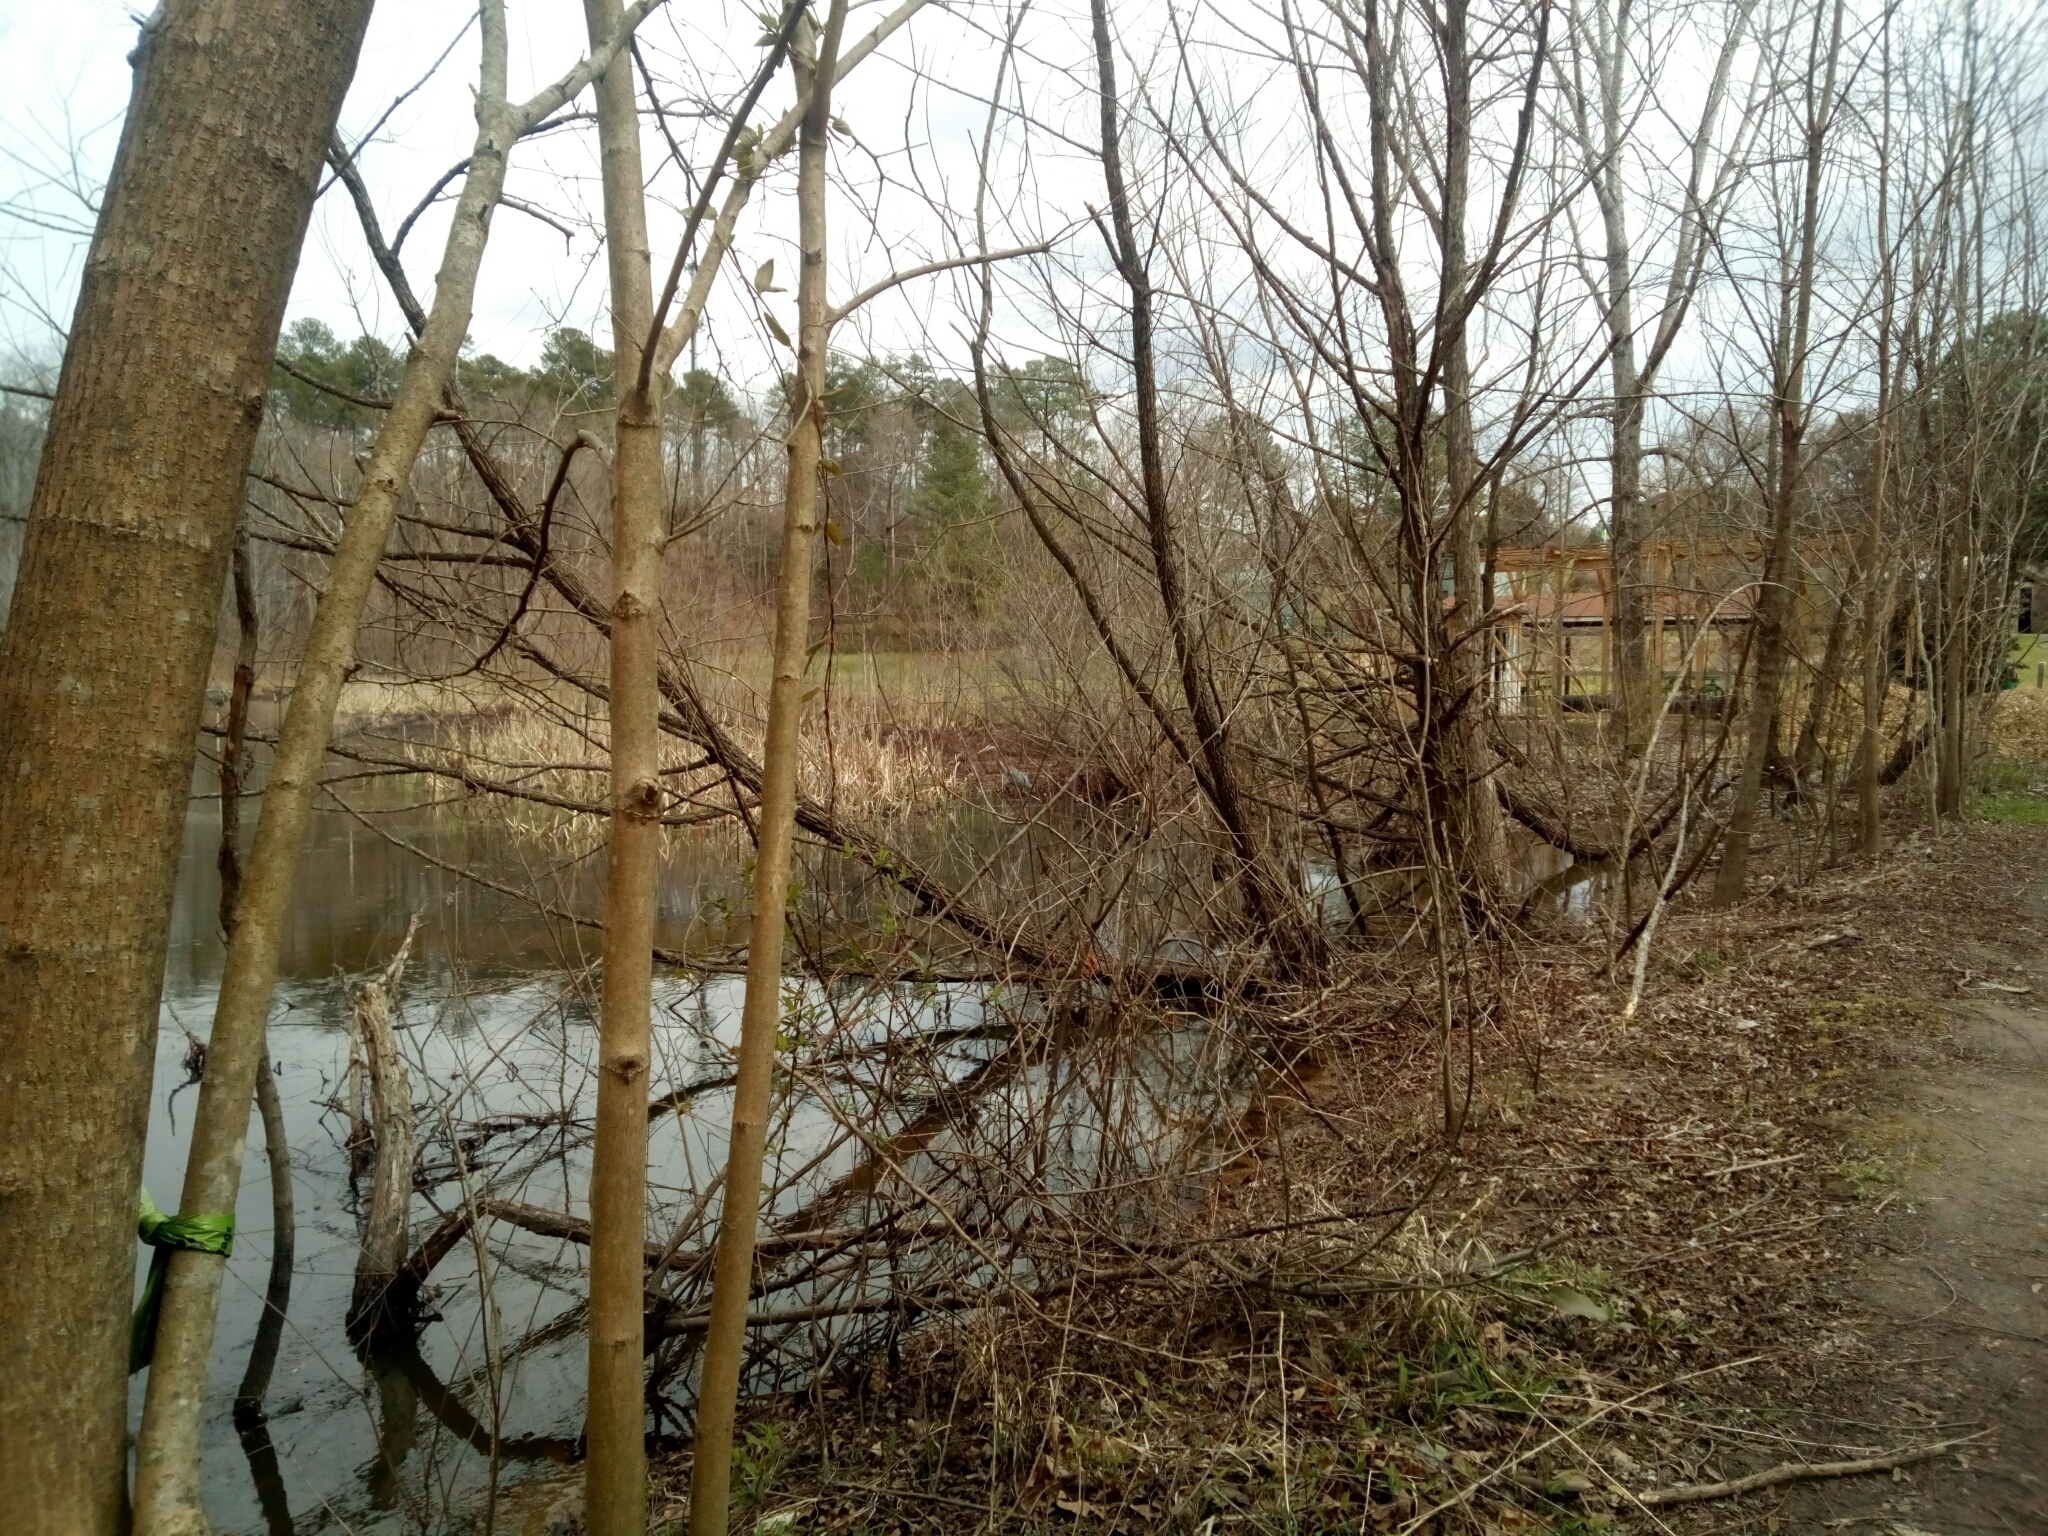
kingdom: Animalia
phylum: Chordata
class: Aves
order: Pelecaniformes
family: Ardeidae
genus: Ardea
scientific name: Ardea herodias
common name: Great blue heron
